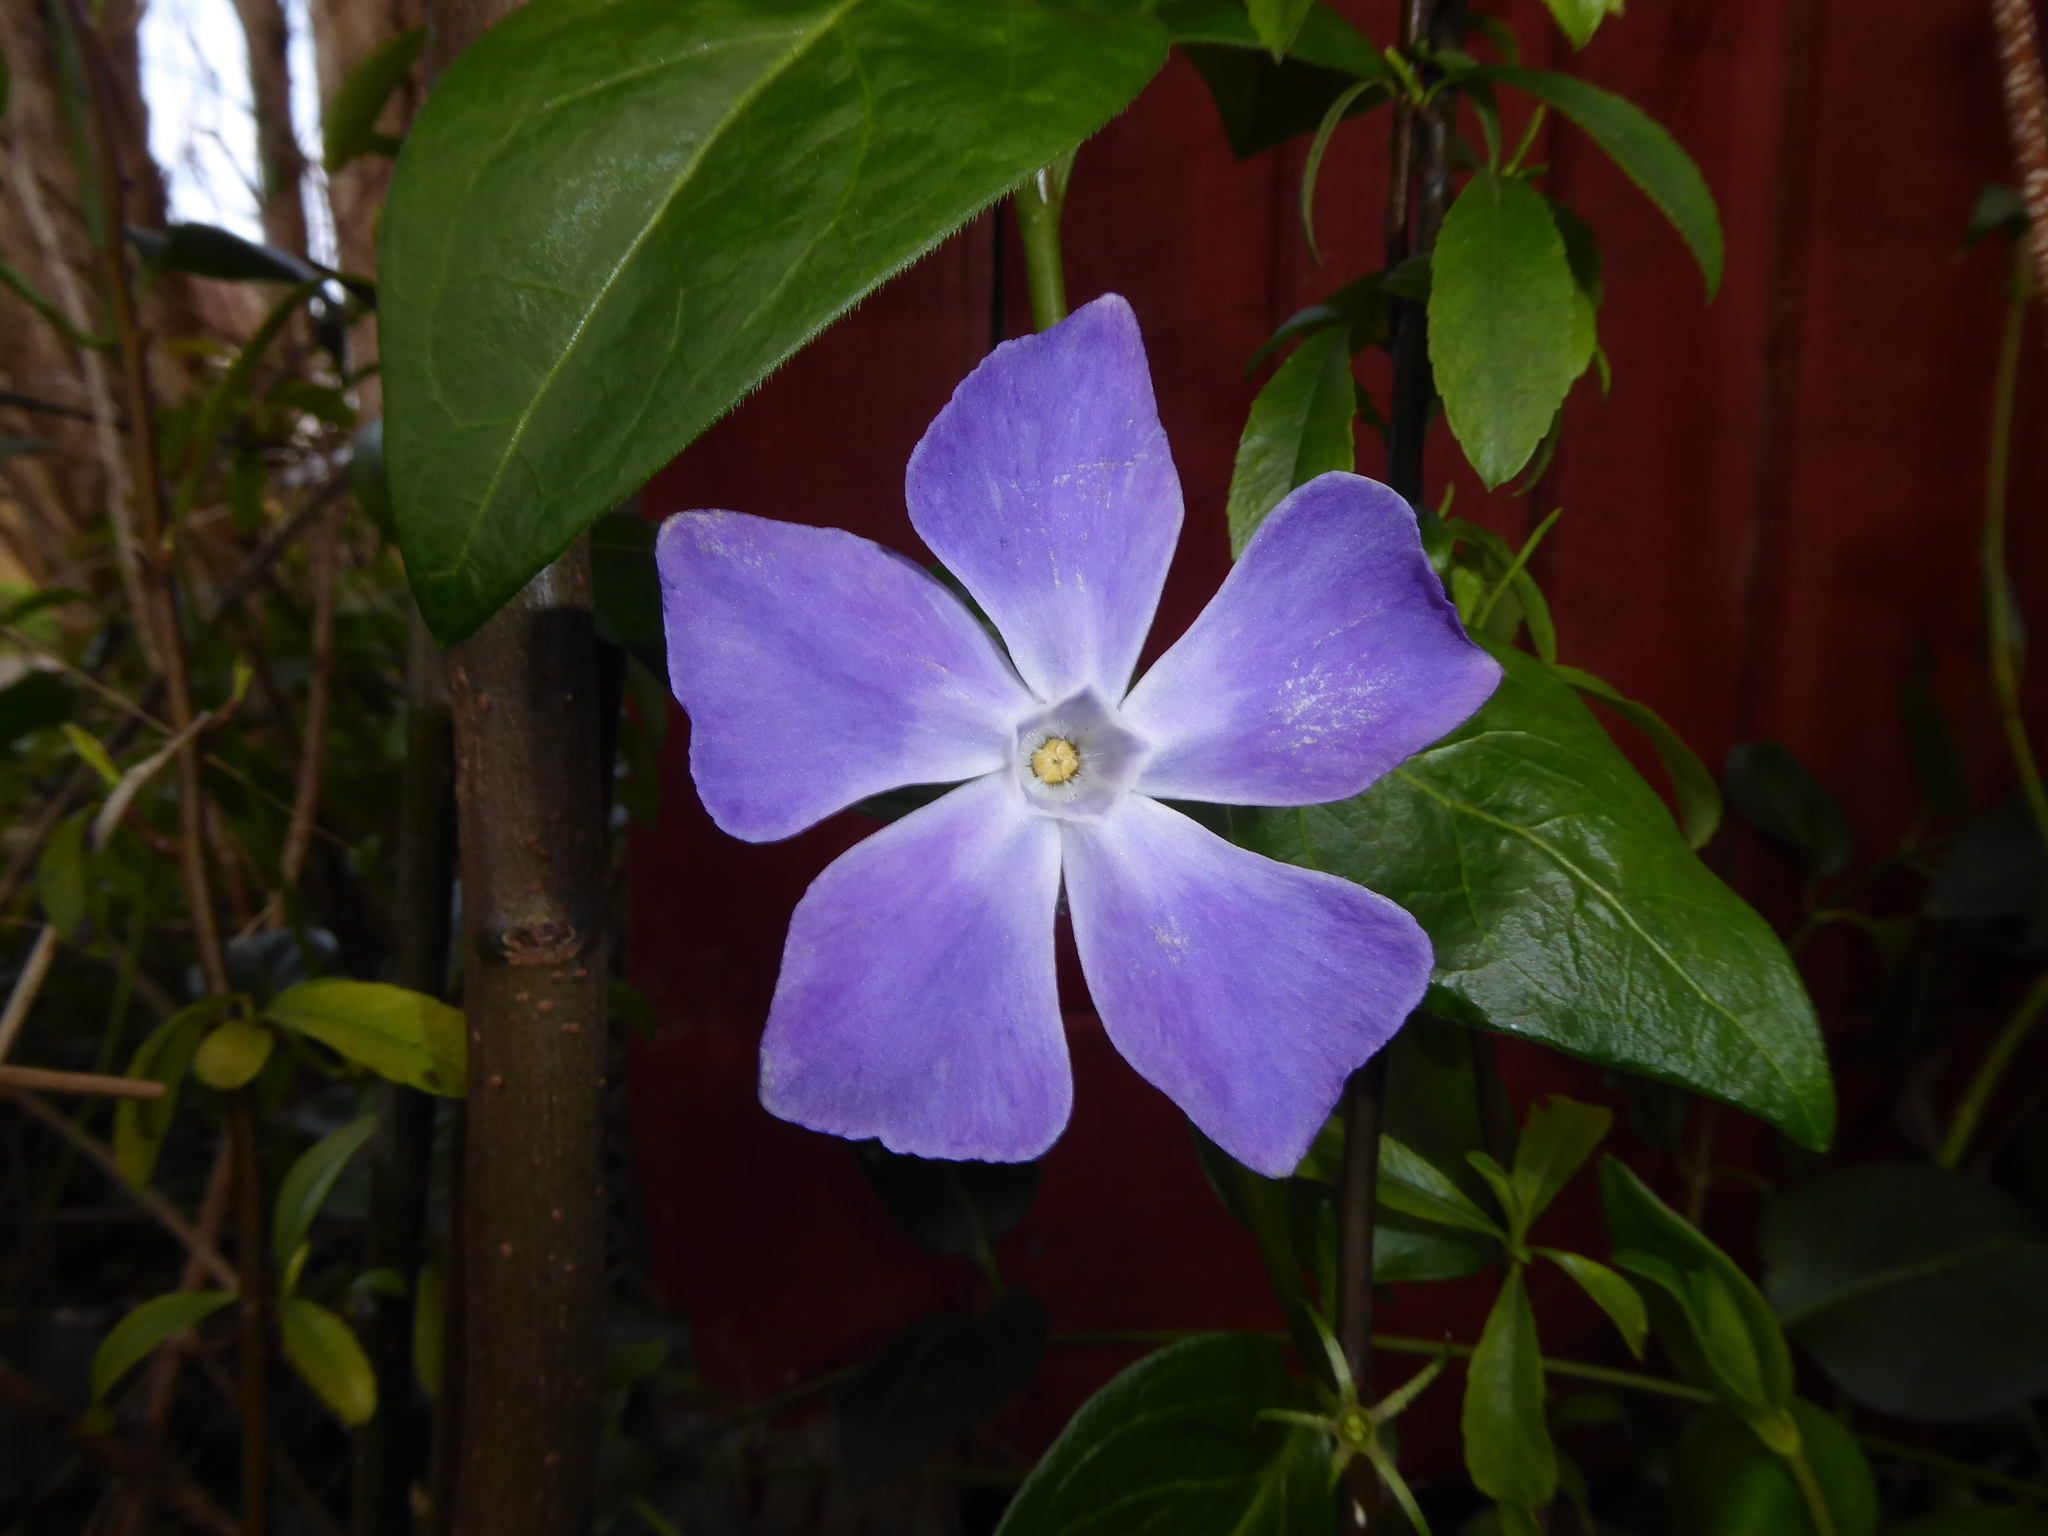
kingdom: Plantae
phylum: Tracheophyta
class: Magnoliopsida
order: Gentianales
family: Apocynaceae
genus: Vinca
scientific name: Vinca major
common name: Greater periwinkle
